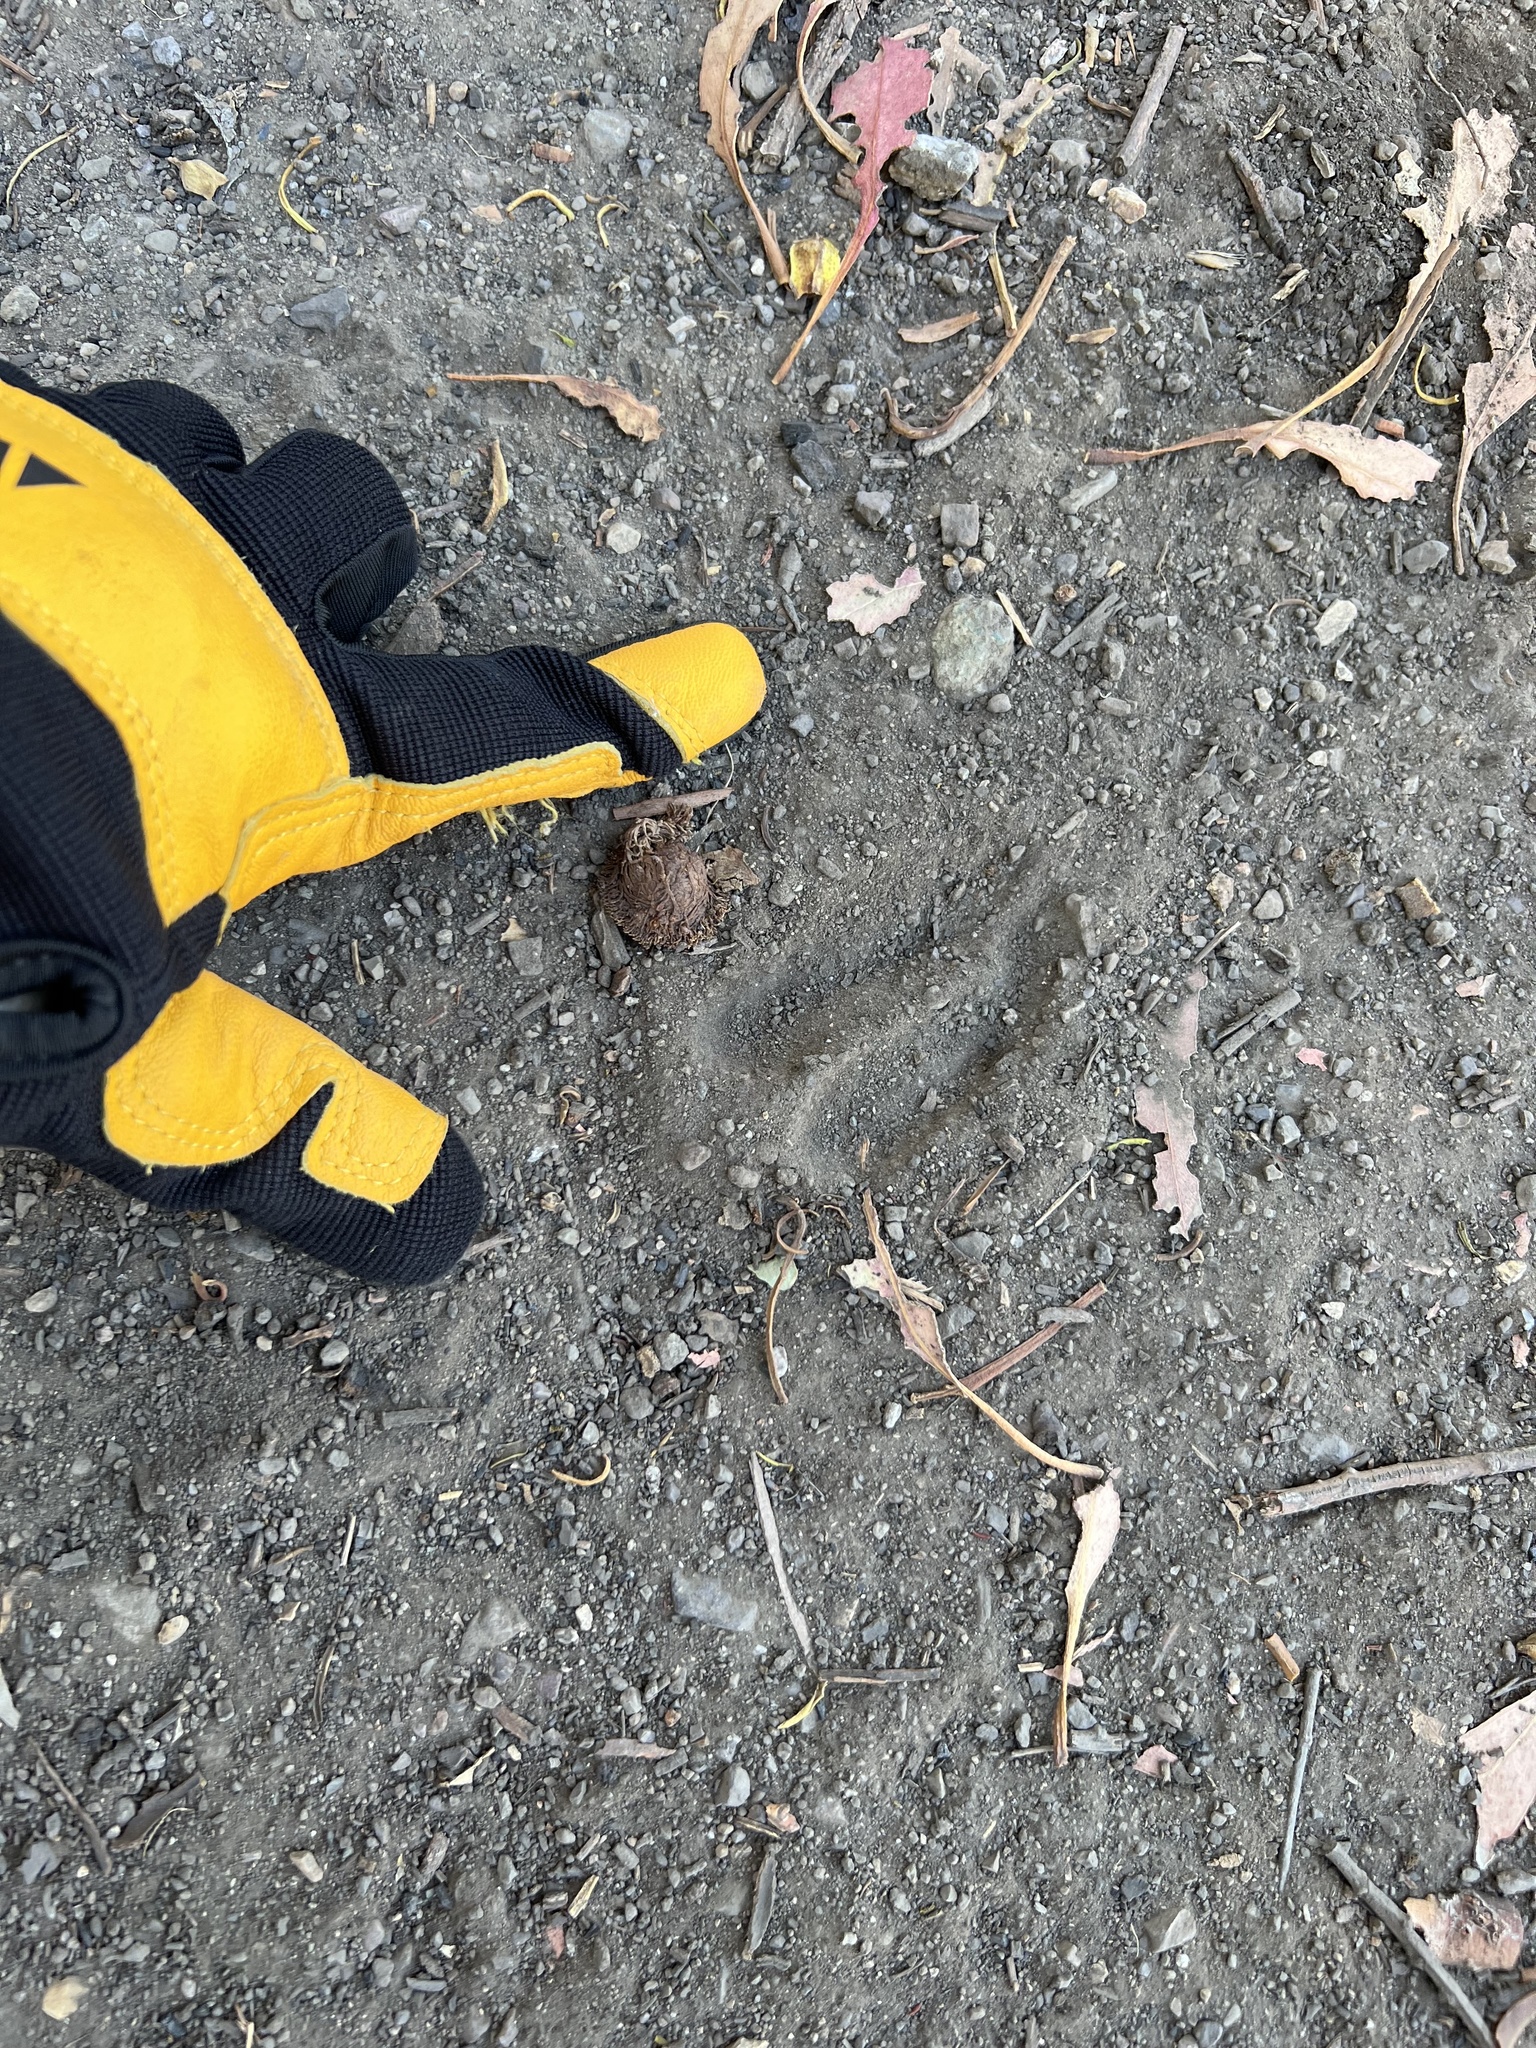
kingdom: Animalia
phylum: Chordata
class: Mammalia
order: Artiodactyla
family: Cervidae
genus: Odocoileus
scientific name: Odocoileus hemionus
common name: Mule deer
